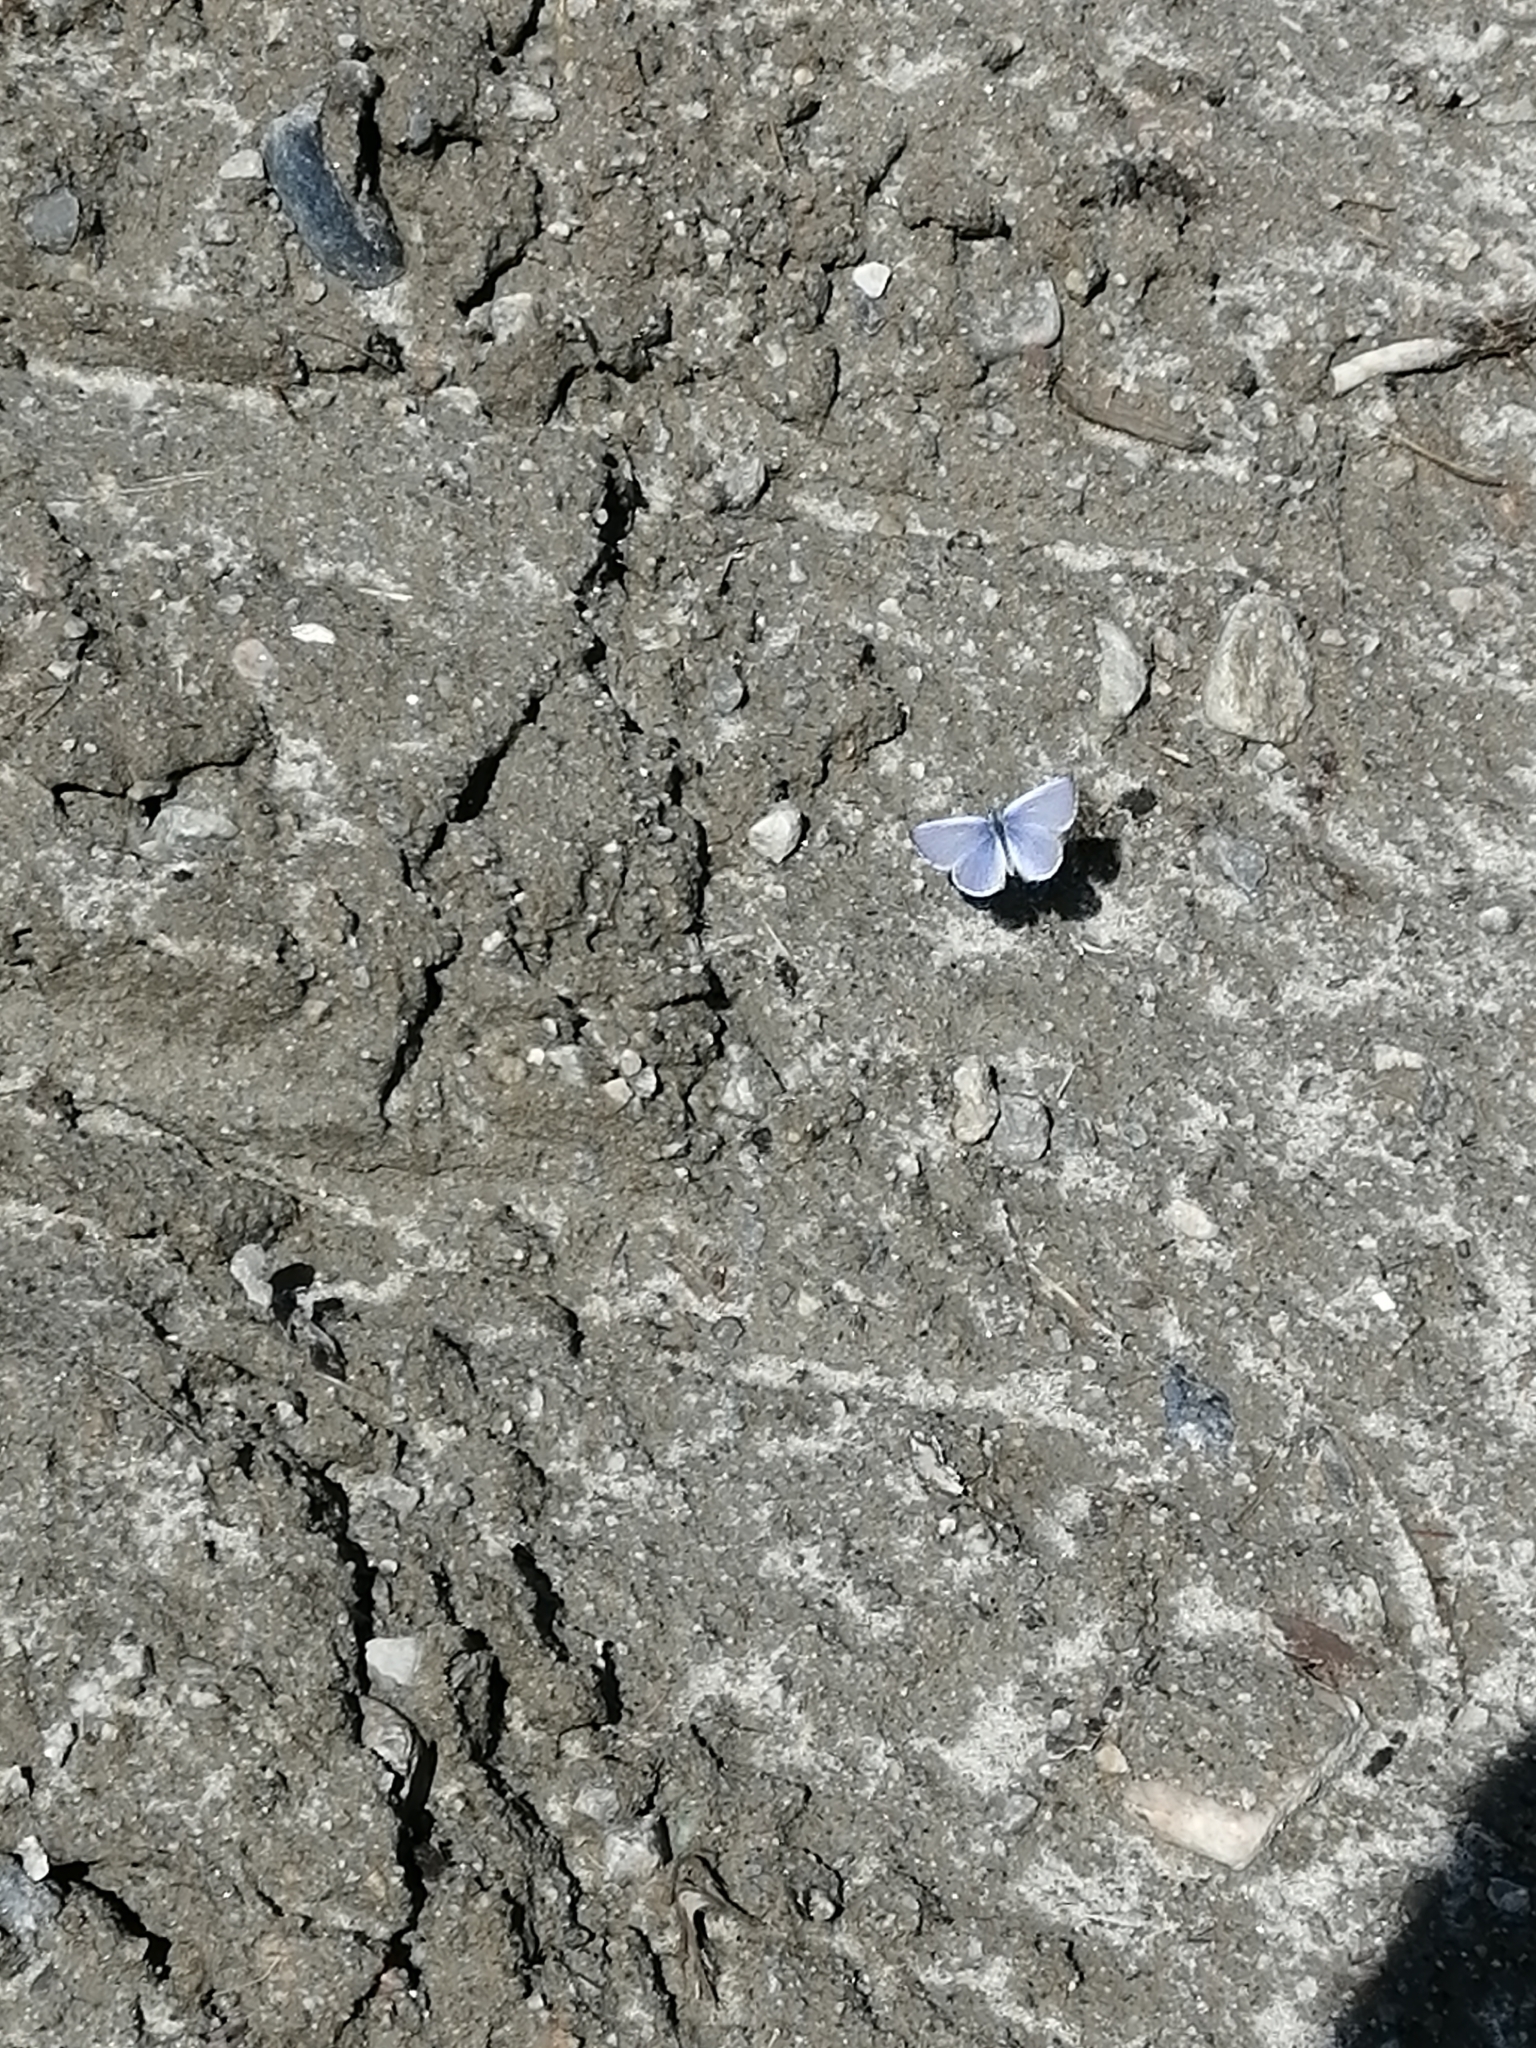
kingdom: Animalia
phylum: Arthropoda
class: Insecta
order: Lepidoptera
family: Lycaenidae
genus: Celastrina
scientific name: Celastrina argiolus
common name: Holly blue
